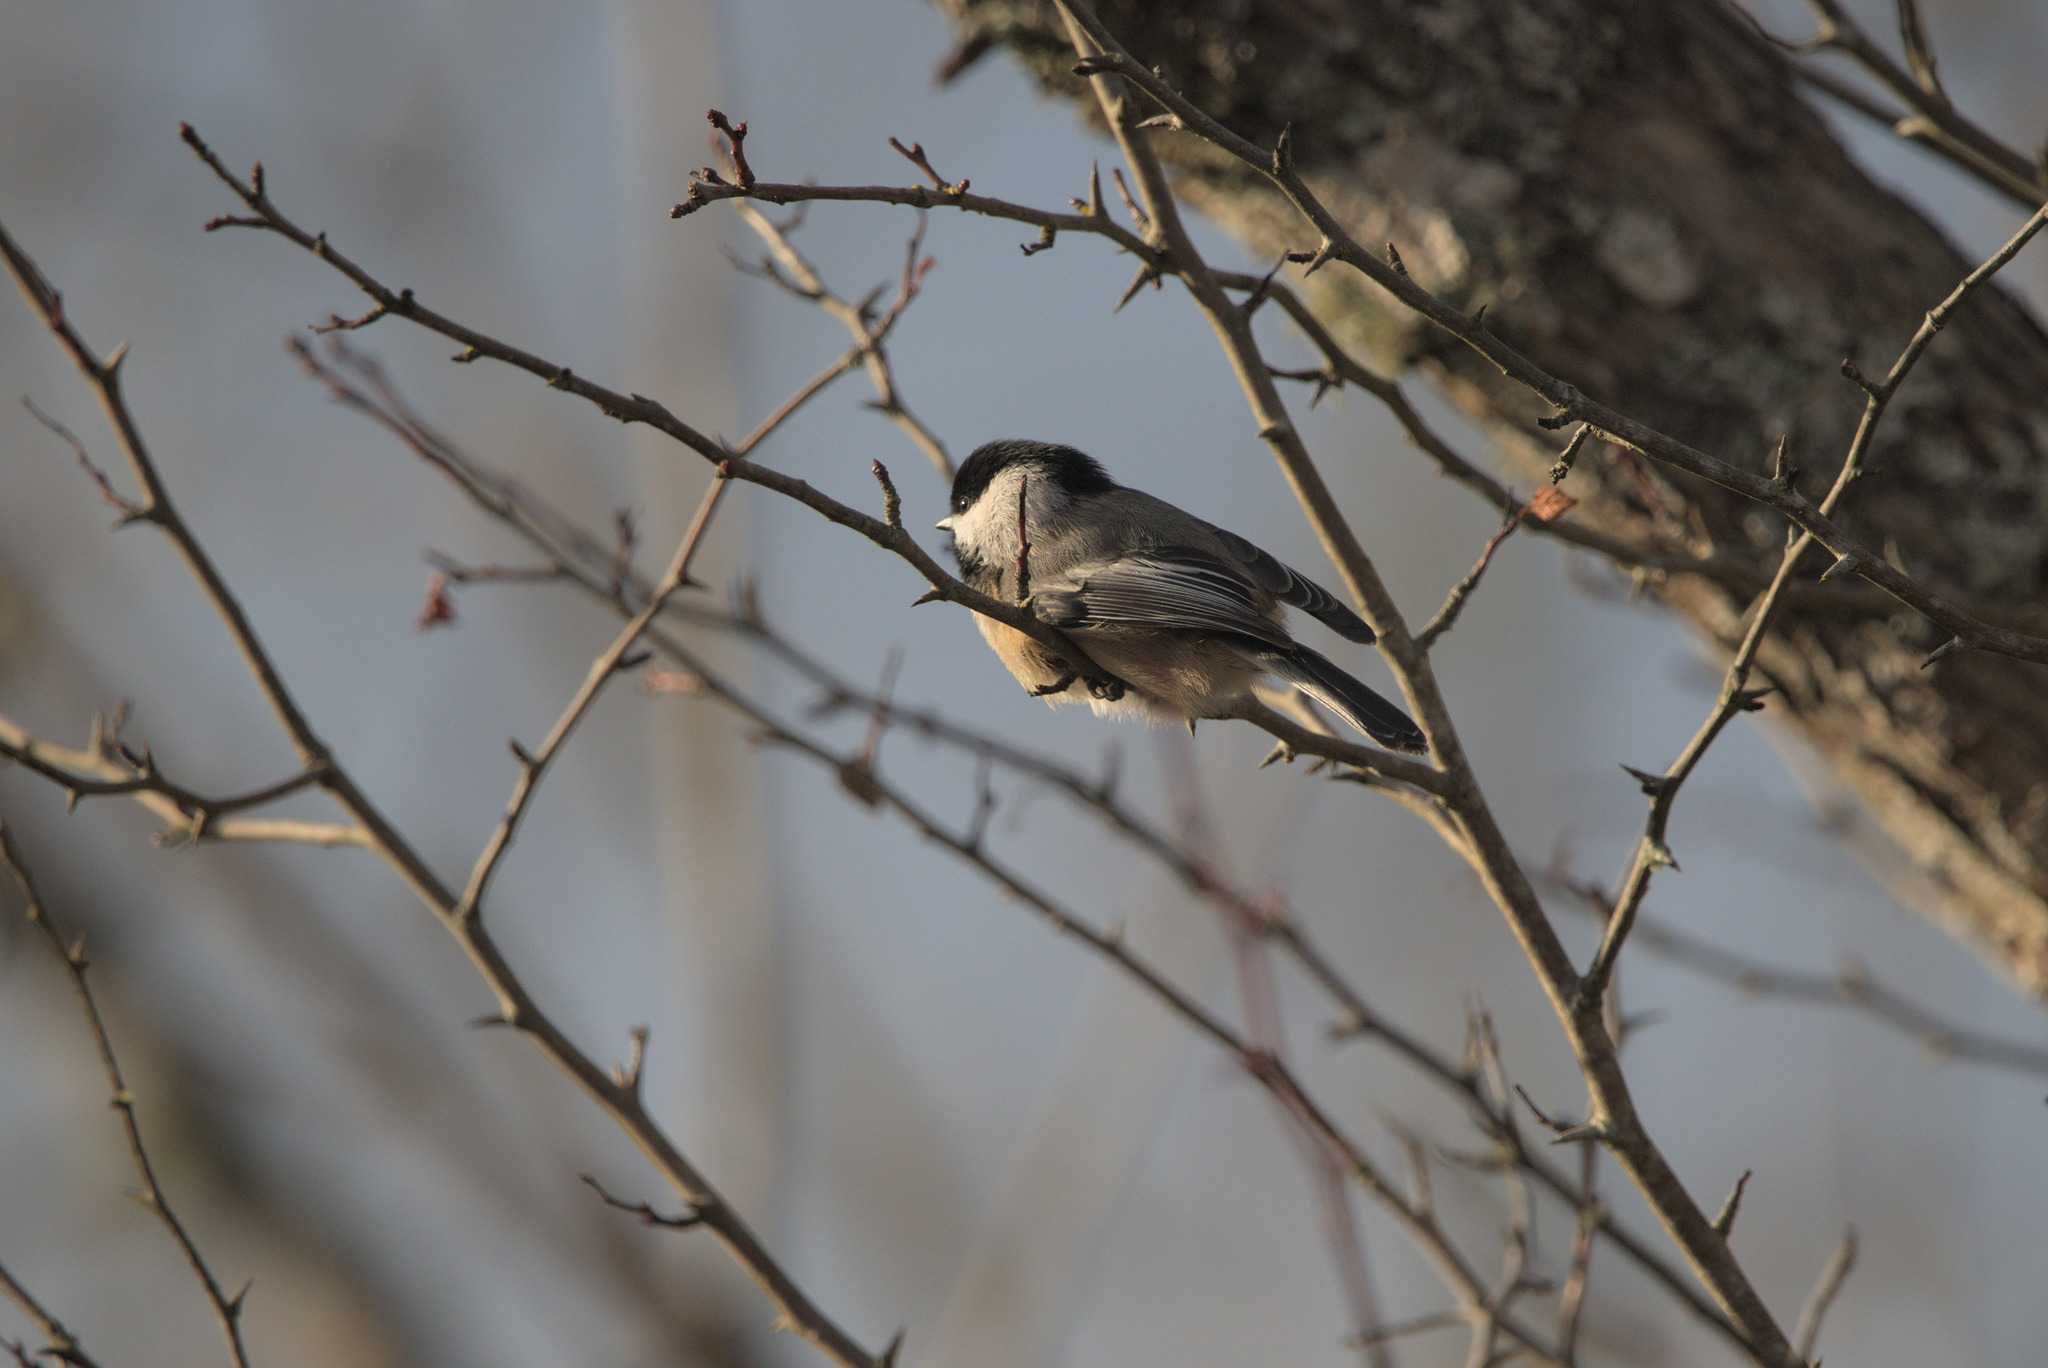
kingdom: Animalia
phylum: Chordata
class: Aves
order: Passeriformes
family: Paridae
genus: Poecile
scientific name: Poecile atricapillus
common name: Black-capped chickadee
